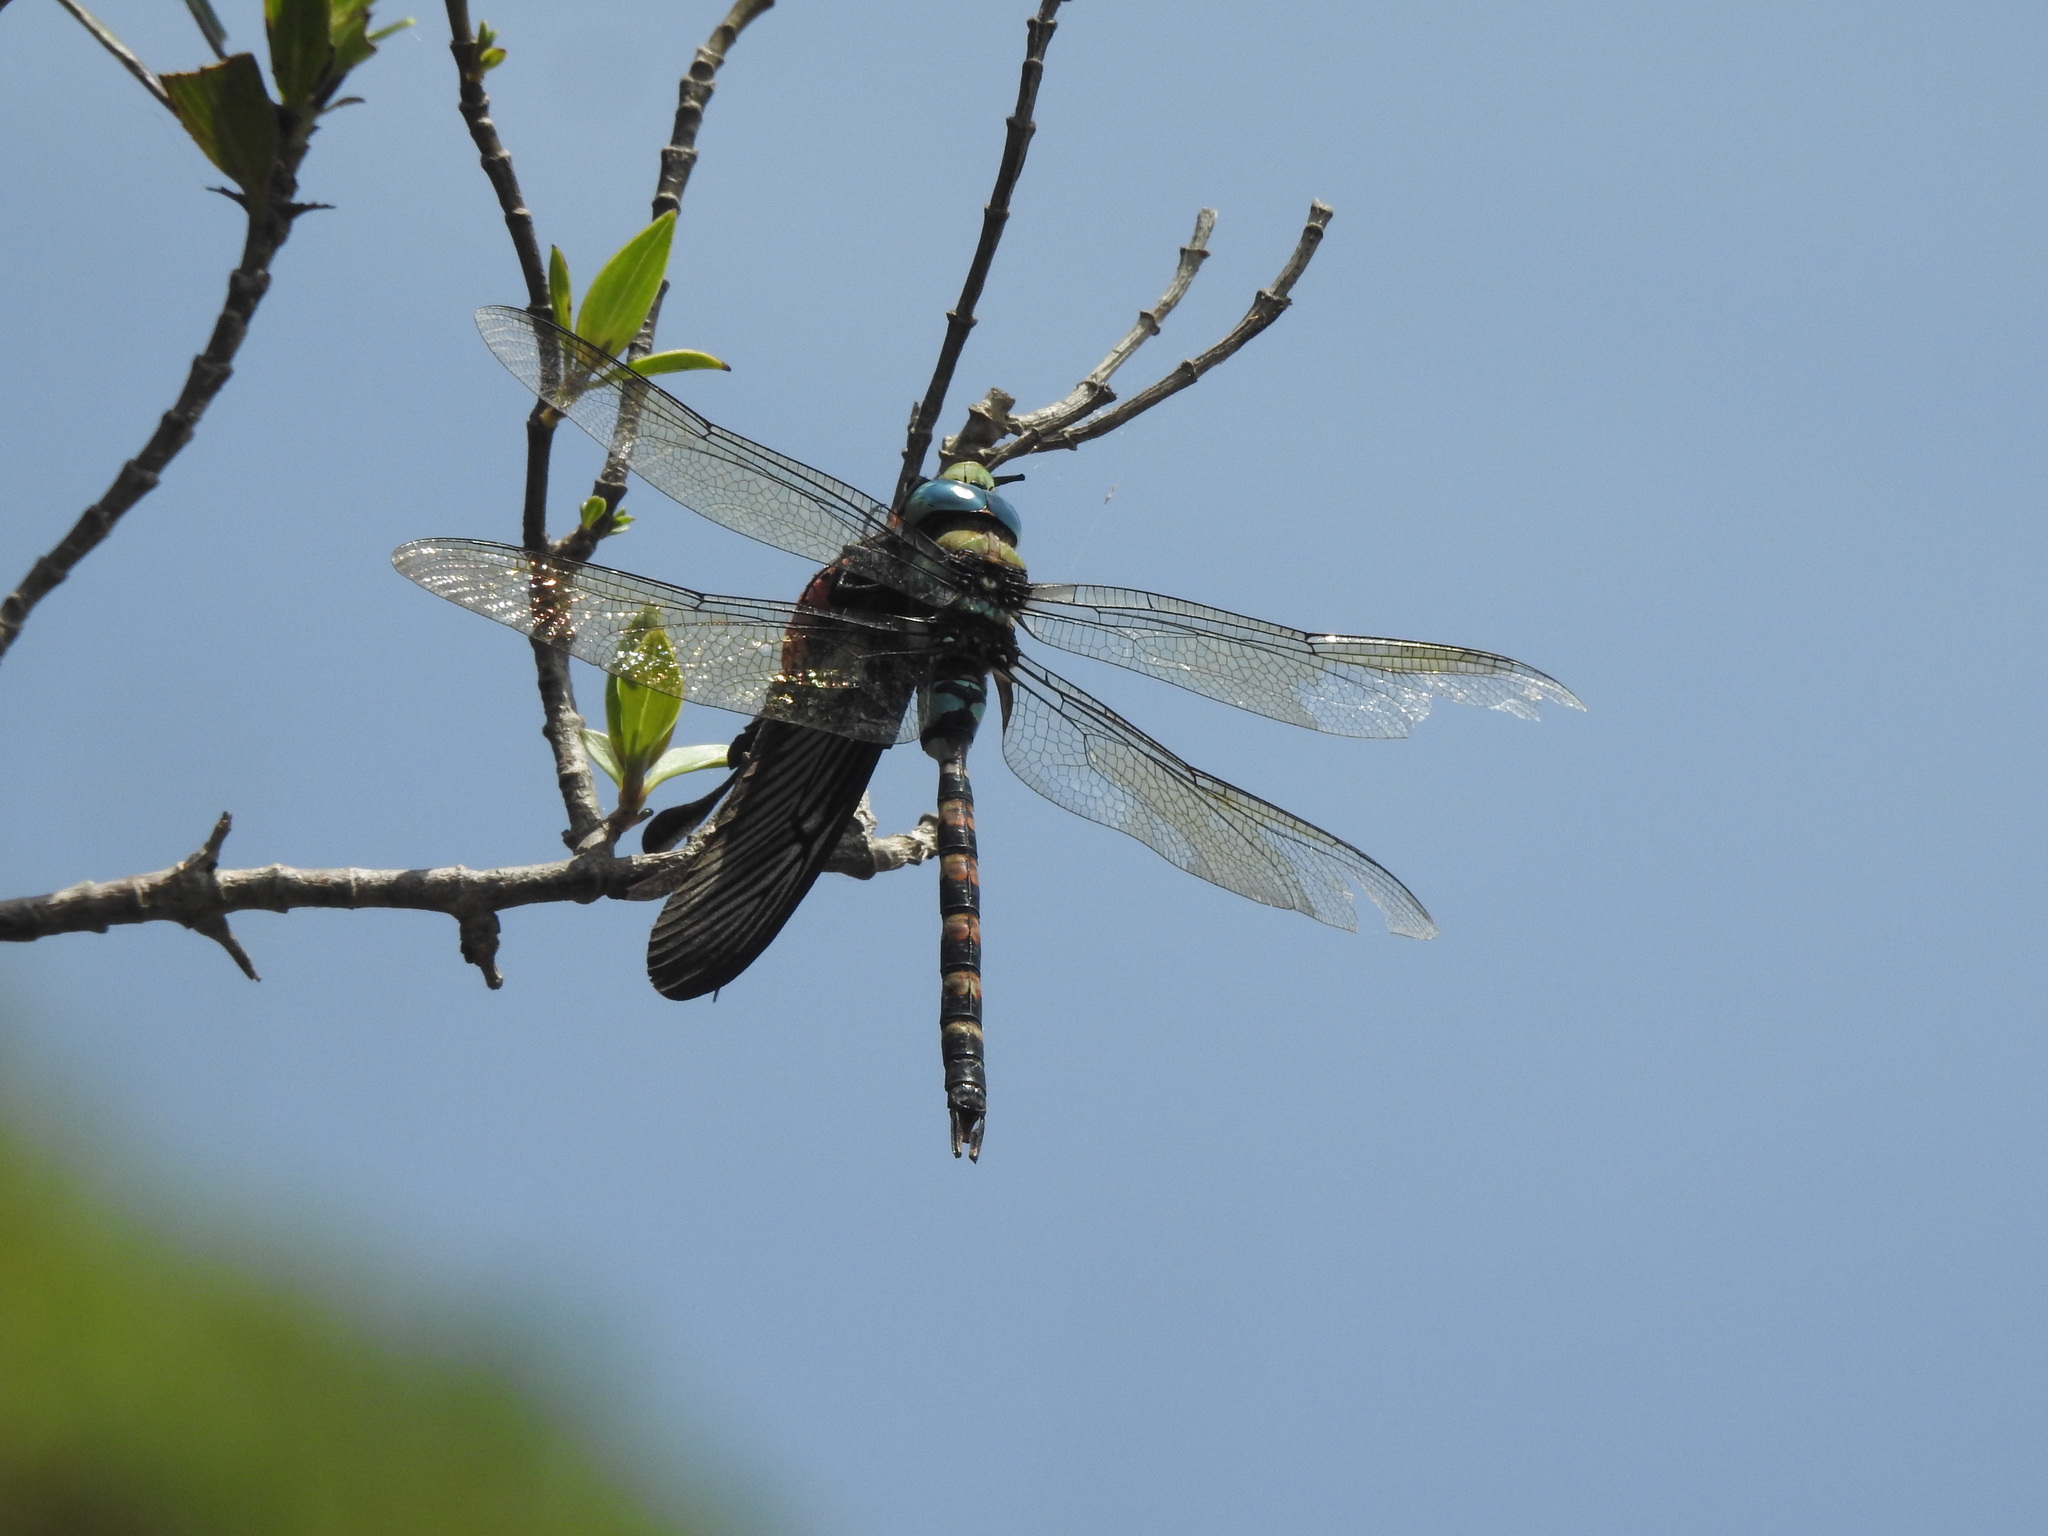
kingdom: Animalia
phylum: Arthropoda
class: Insecta
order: Lepidoptera
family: Papilionidae
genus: Pachliopta
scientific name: Pachliopta pandiyana
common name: Malabar rose
